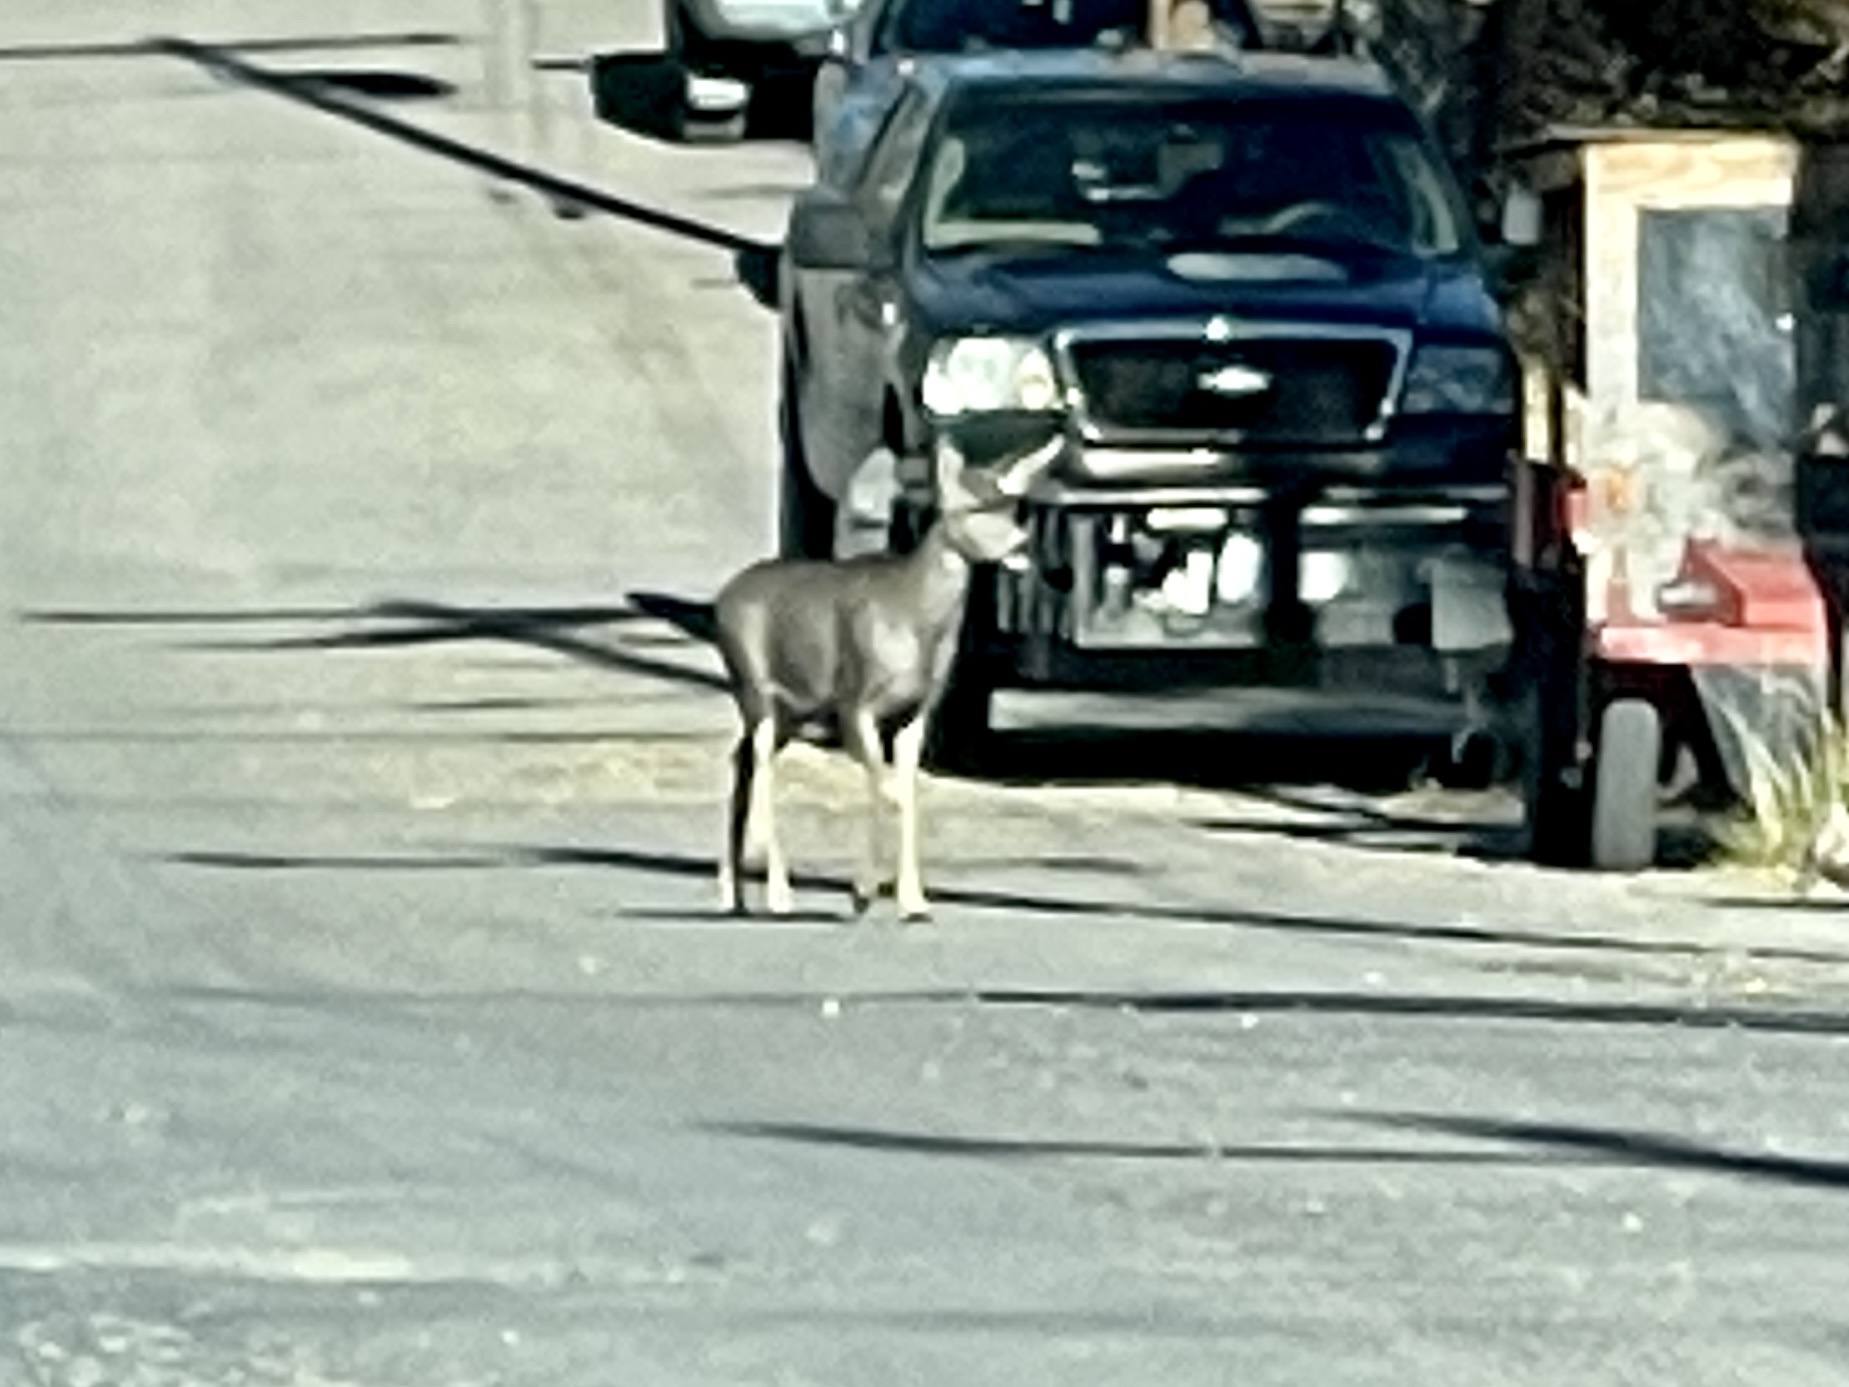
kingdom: Animalia
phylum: Chordata
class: Mammalia
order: Artiodactyla
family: Cervidae
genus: Odocoileus
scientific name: Odocoileus hemionus
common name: Mule deer
